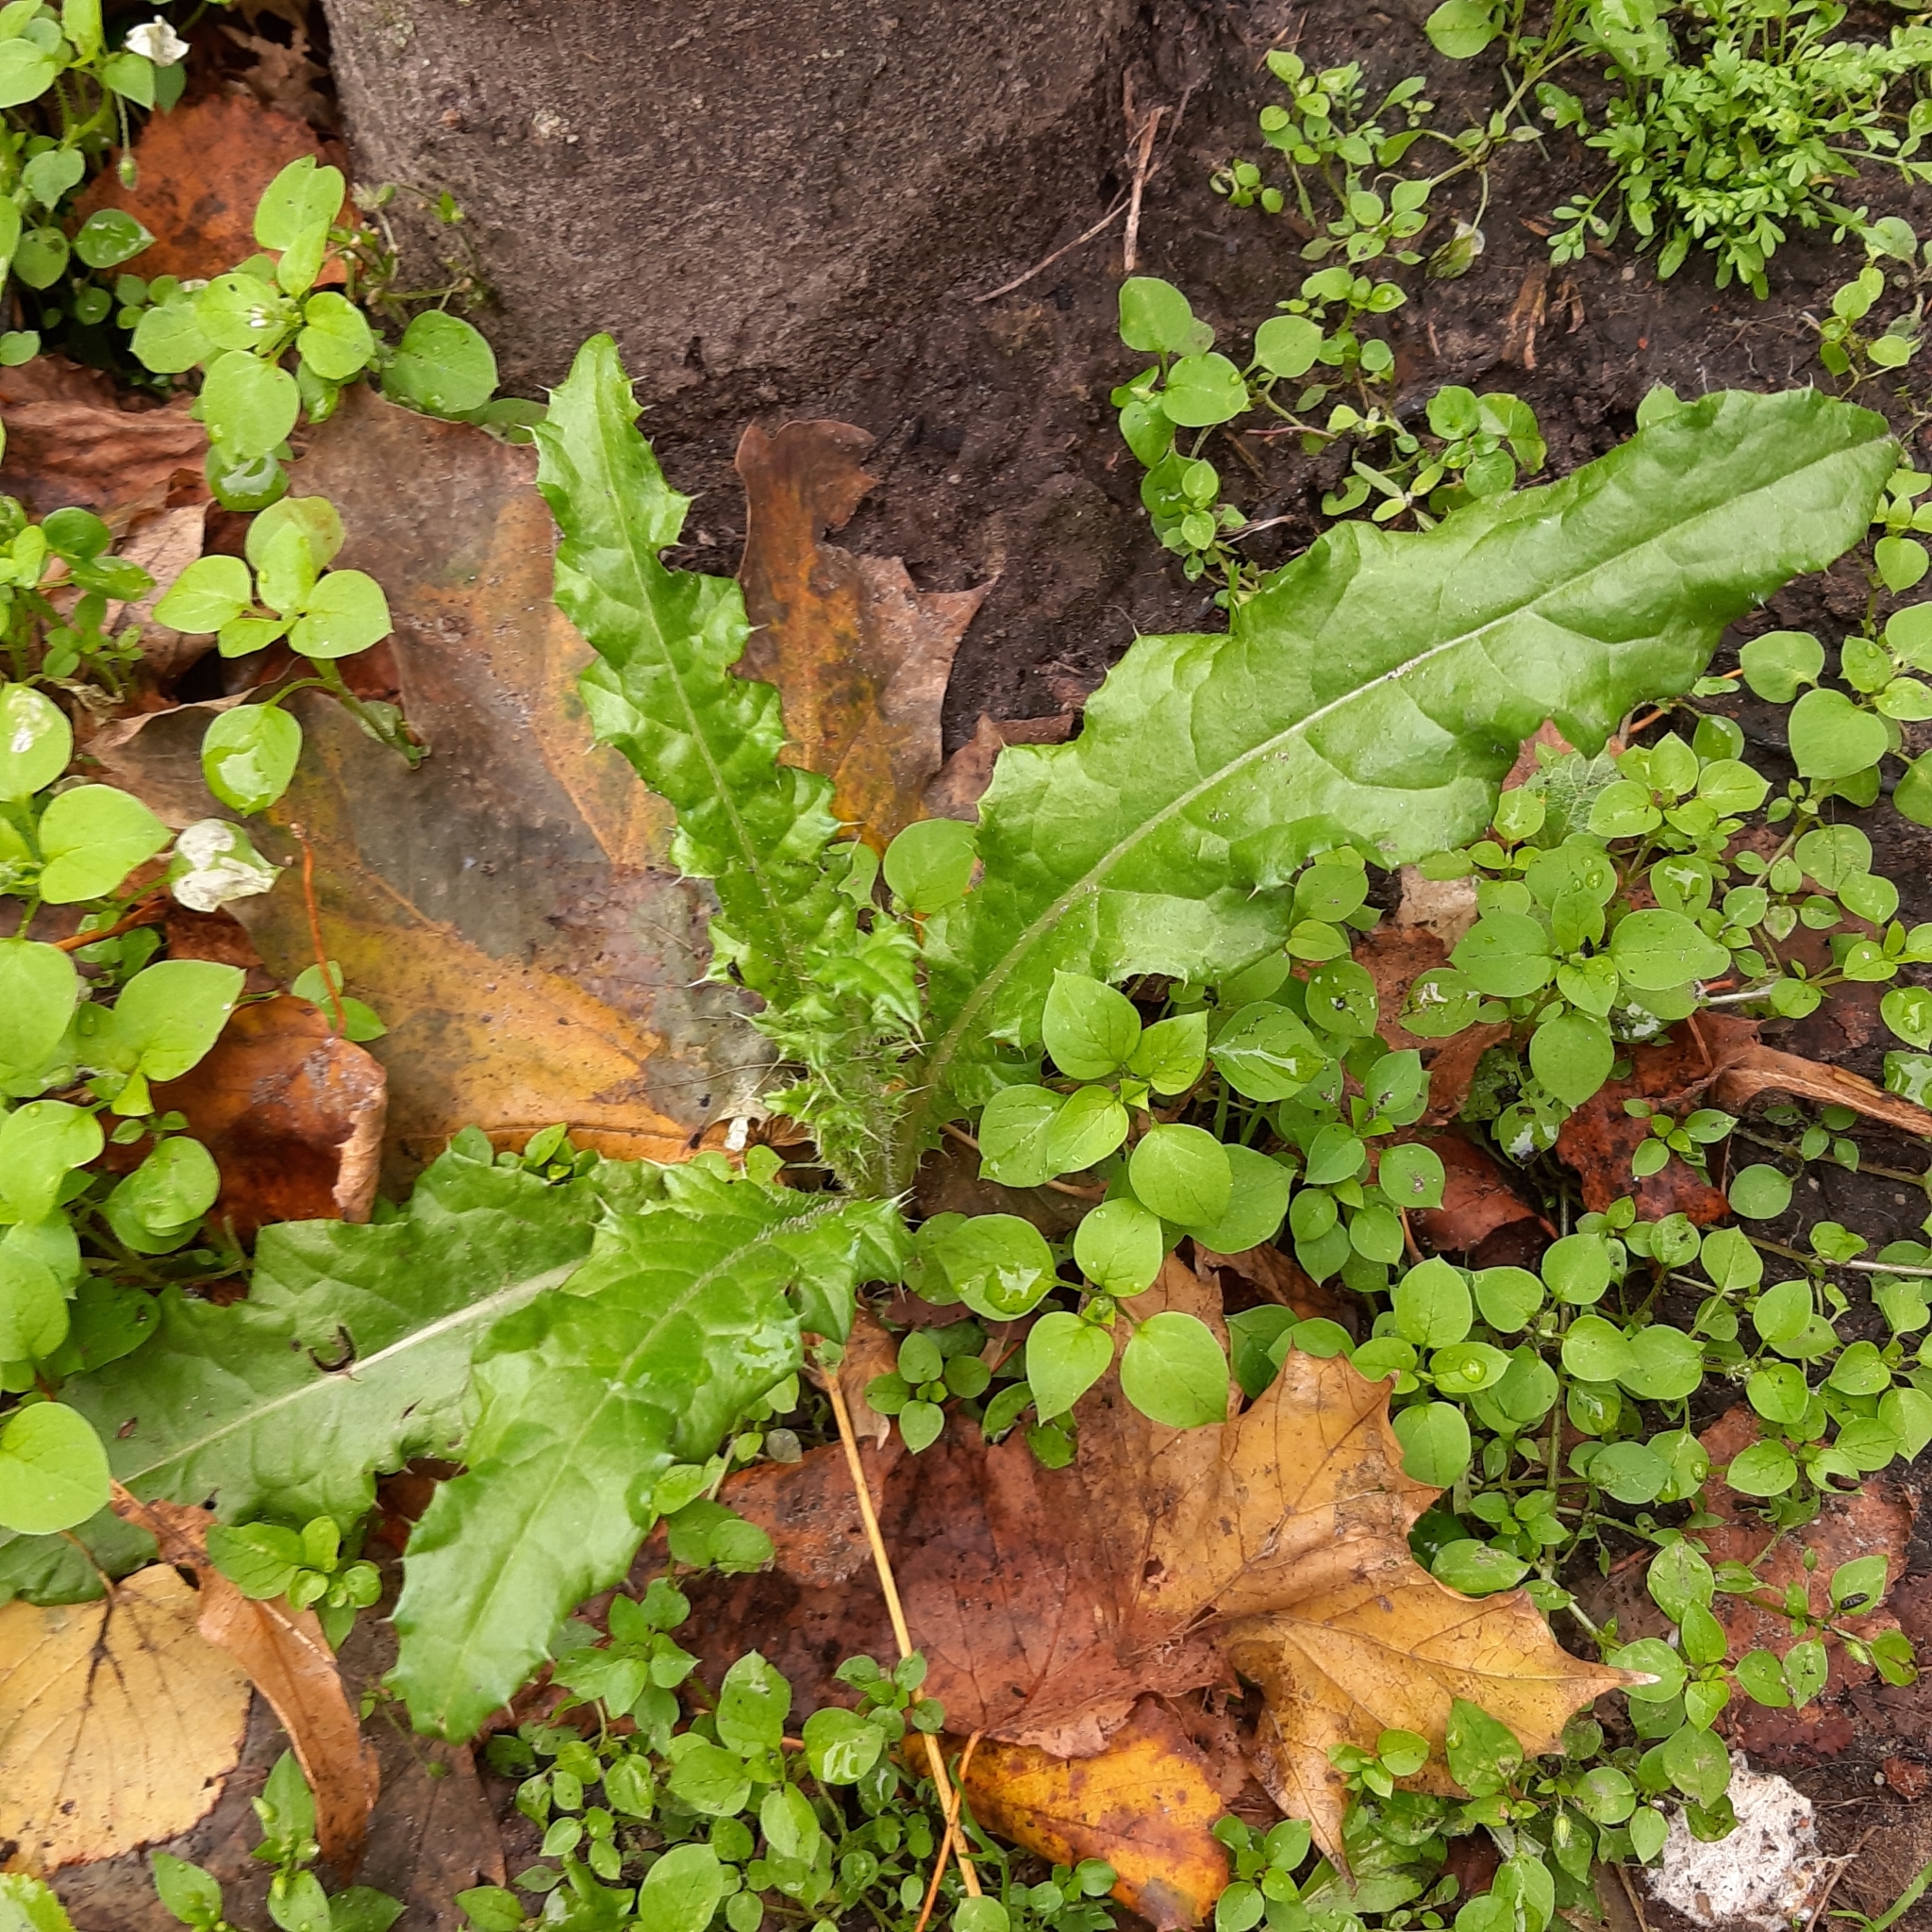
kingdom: Plantae
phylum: Tracheophyta
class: Magnoliopsida
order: Asterales
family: Asteraceae
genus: Cirsium
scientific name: Cirsium arvense
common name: Creeping thistle
